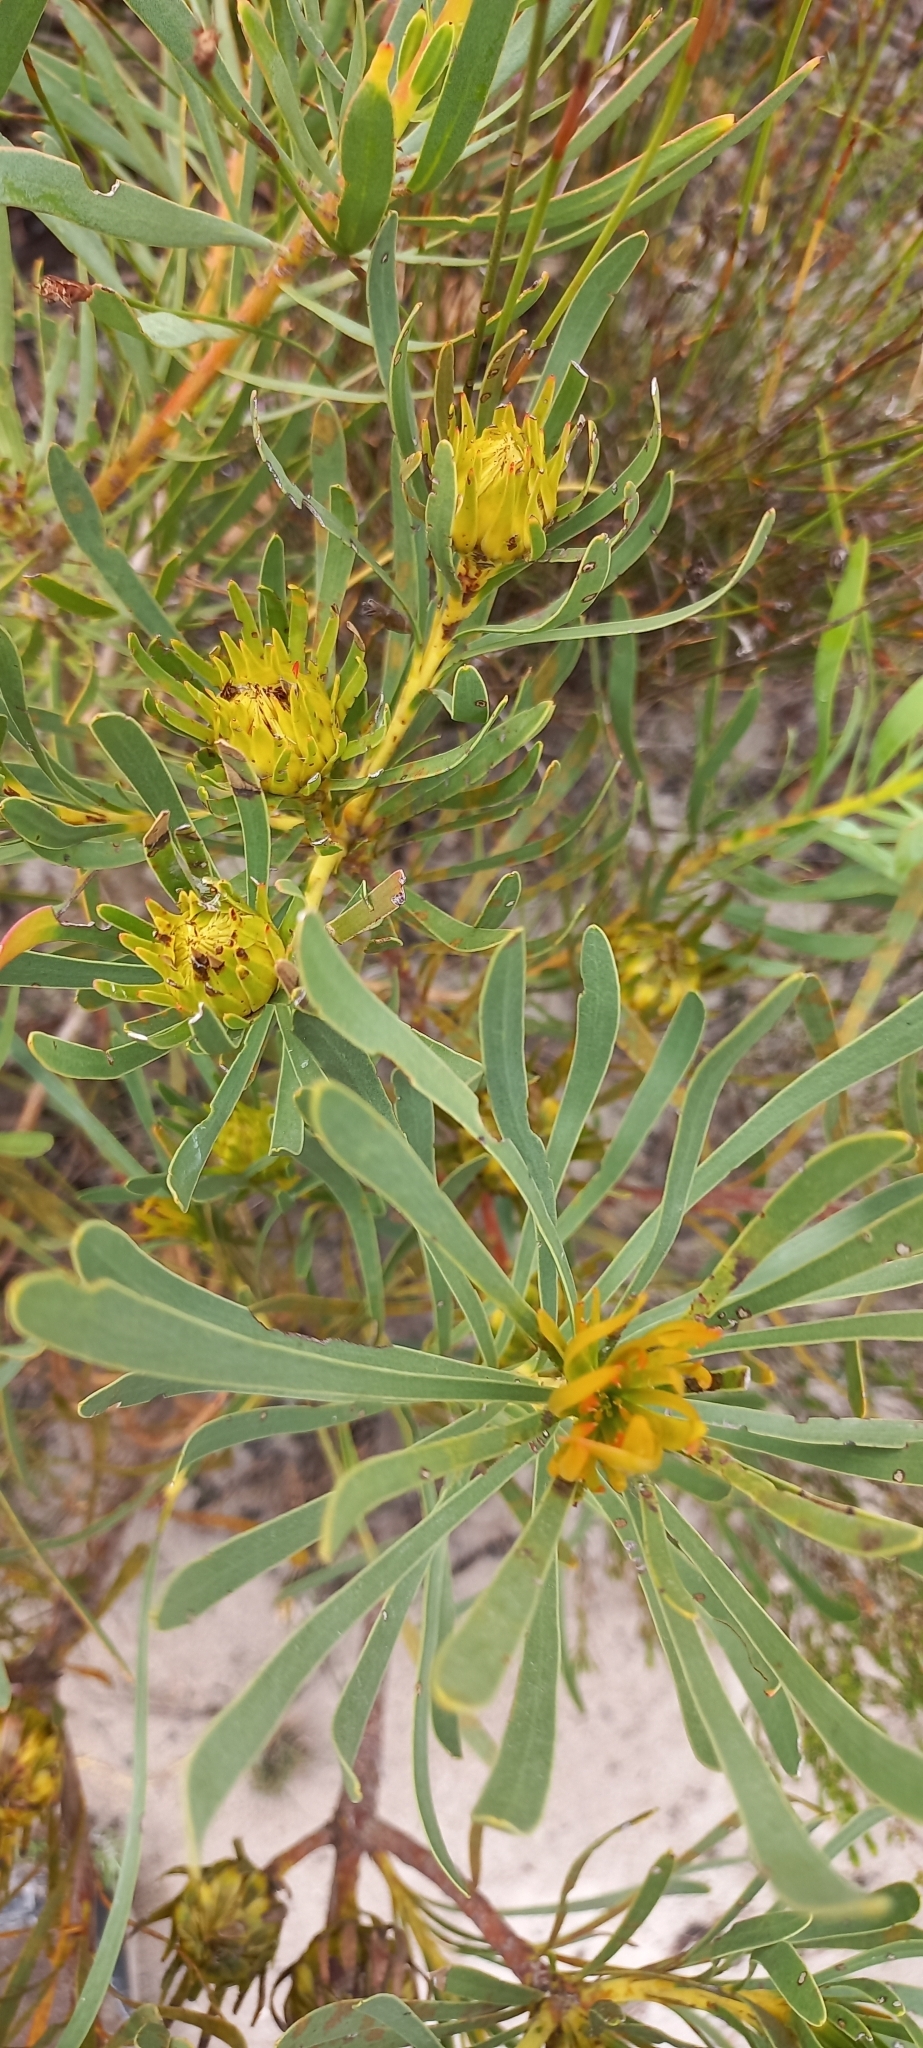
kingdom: Plantae
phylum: Tracheophyta
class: Magnoliopsida
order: Proteales
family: Proteaceae
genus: Aulax
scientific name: Aulax umbellata
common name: Broad-leaf featherbush
